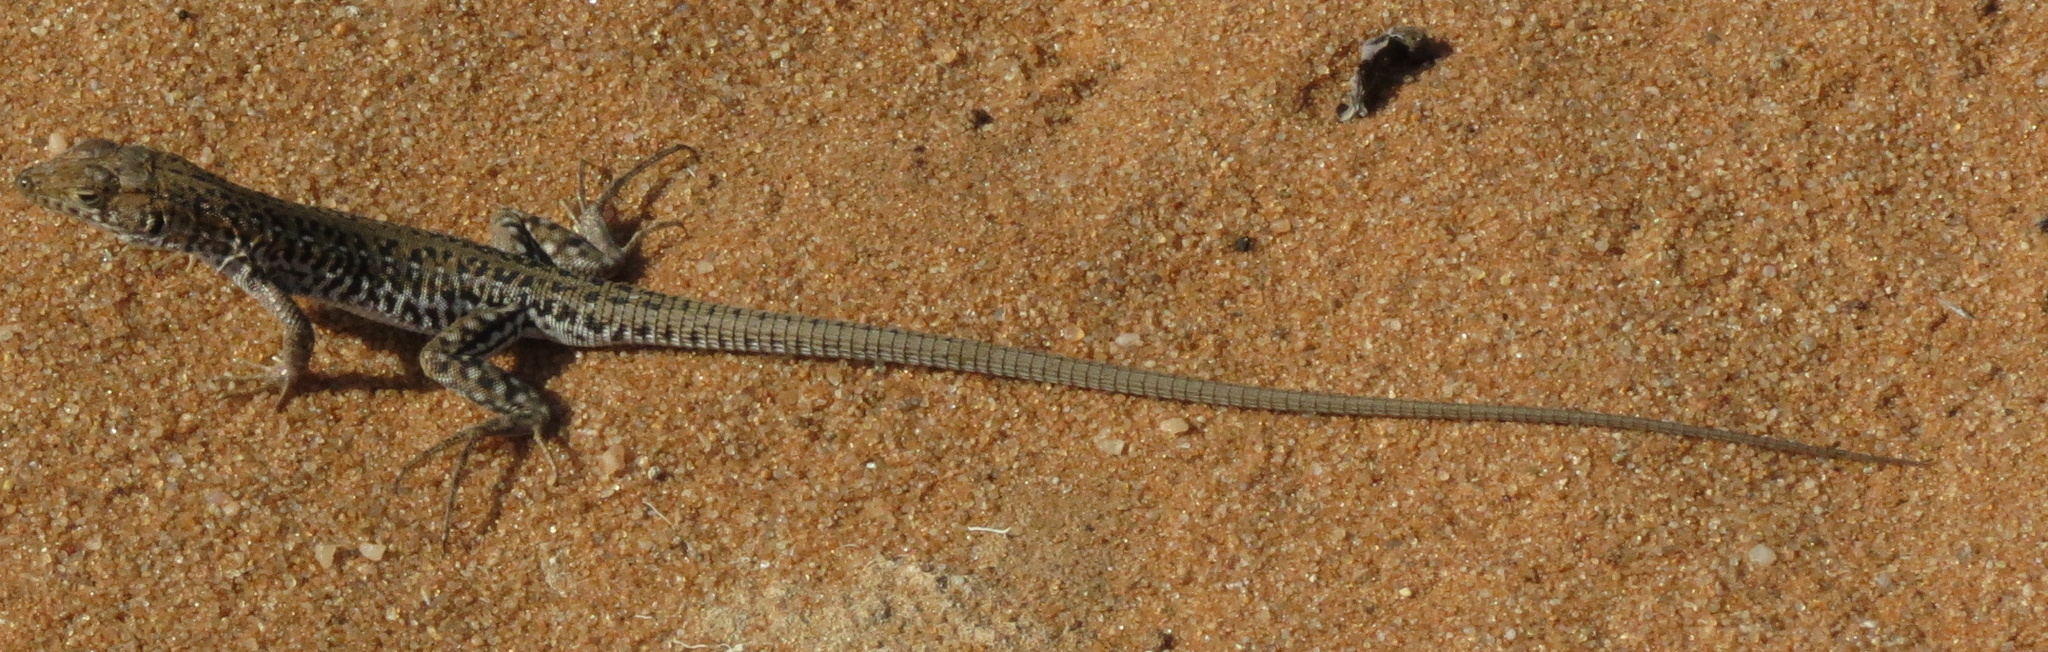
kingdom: Animalia
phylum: Chordata
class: Squamata
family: Lacertidae
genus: Meroles
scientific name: Meroles knoxii
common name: Knox's desert lizard
